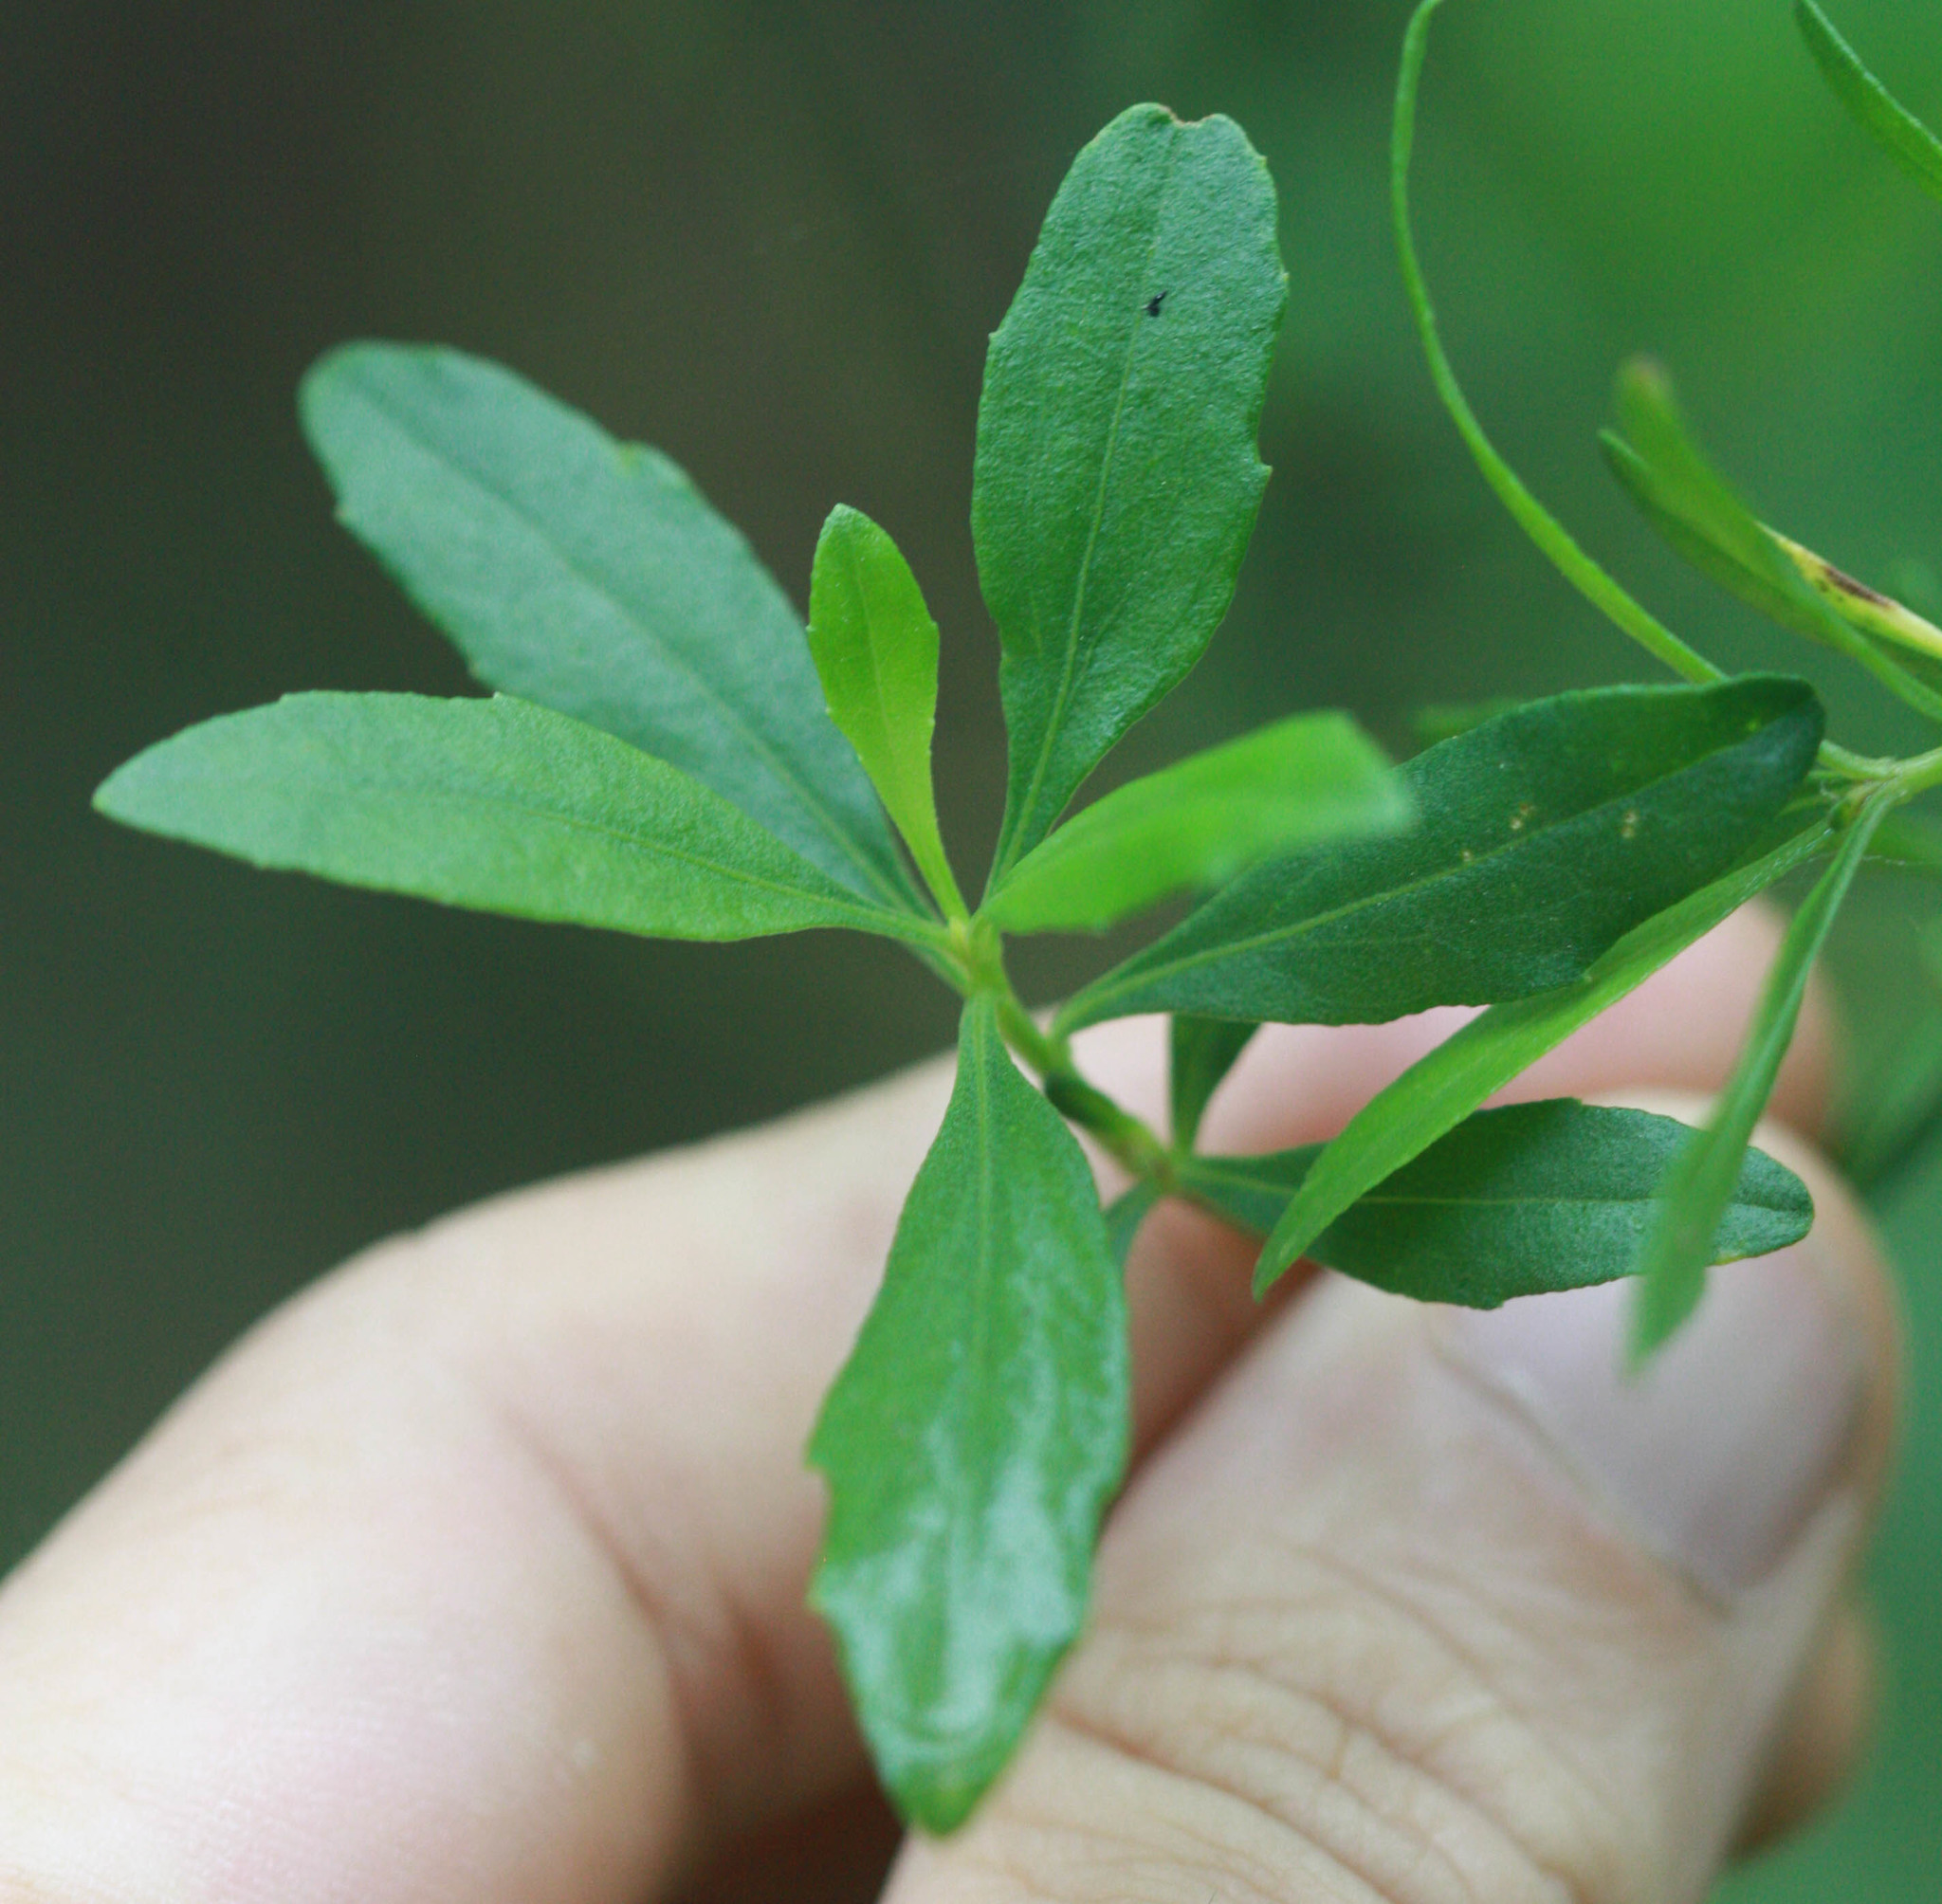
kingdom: Plantae
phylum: Tracheophyta
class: Magnoliopsida
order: Asterales
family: Asteraceae
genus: Baccharis
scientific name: Baccharis halimifolia
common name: Eastern baccharis
